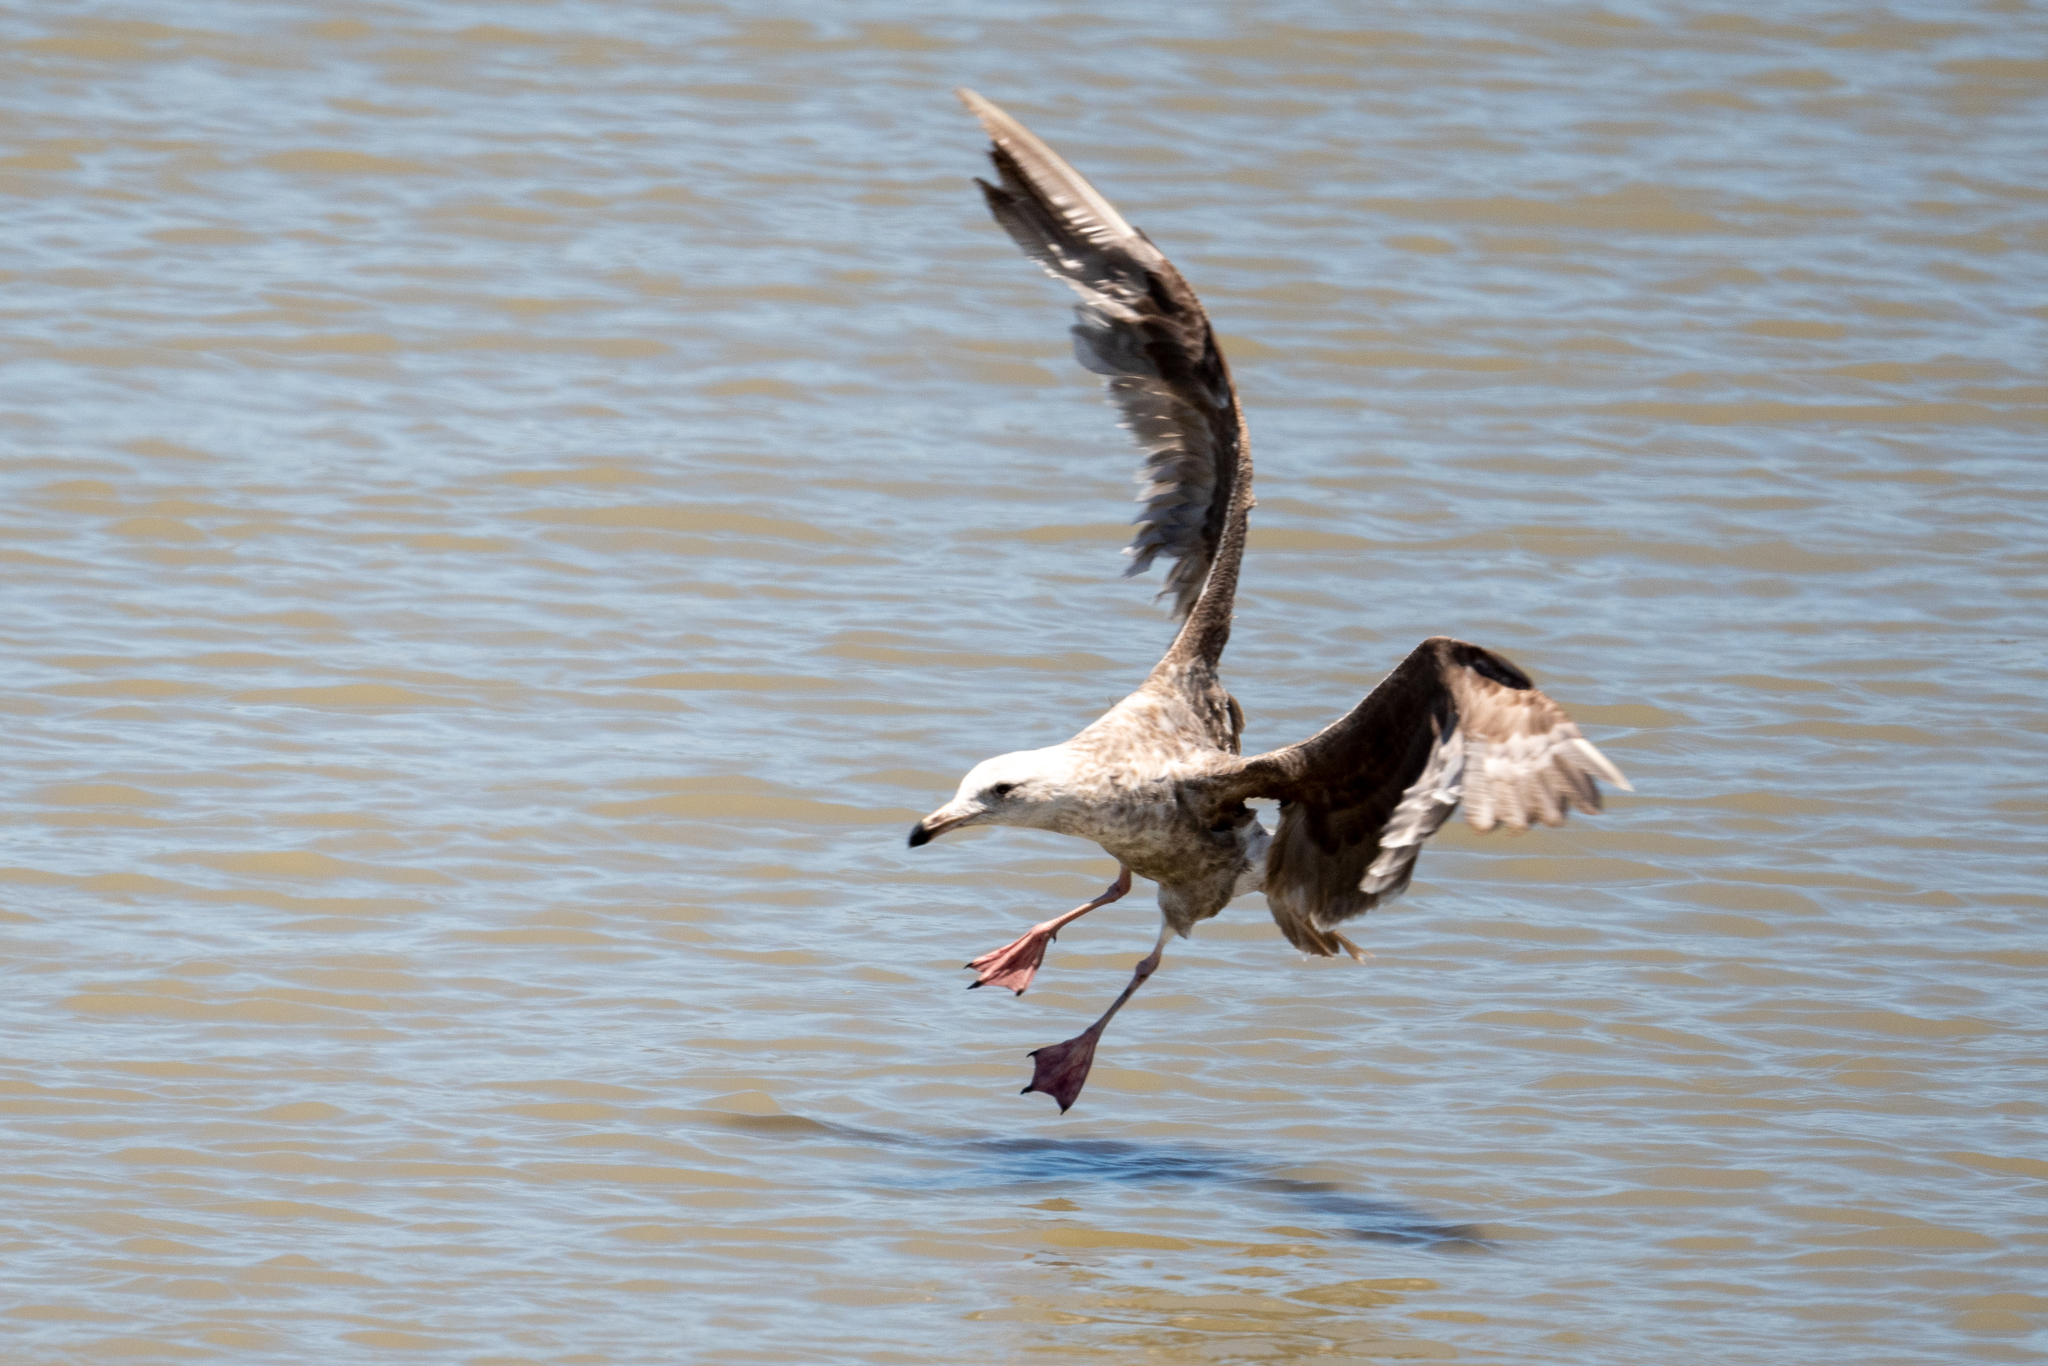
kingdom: Animalia
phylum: Chordata
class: Aves
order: Charadriiformes
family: Laridae
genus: Larus
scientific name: Larus occidentalis
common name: Western gull
